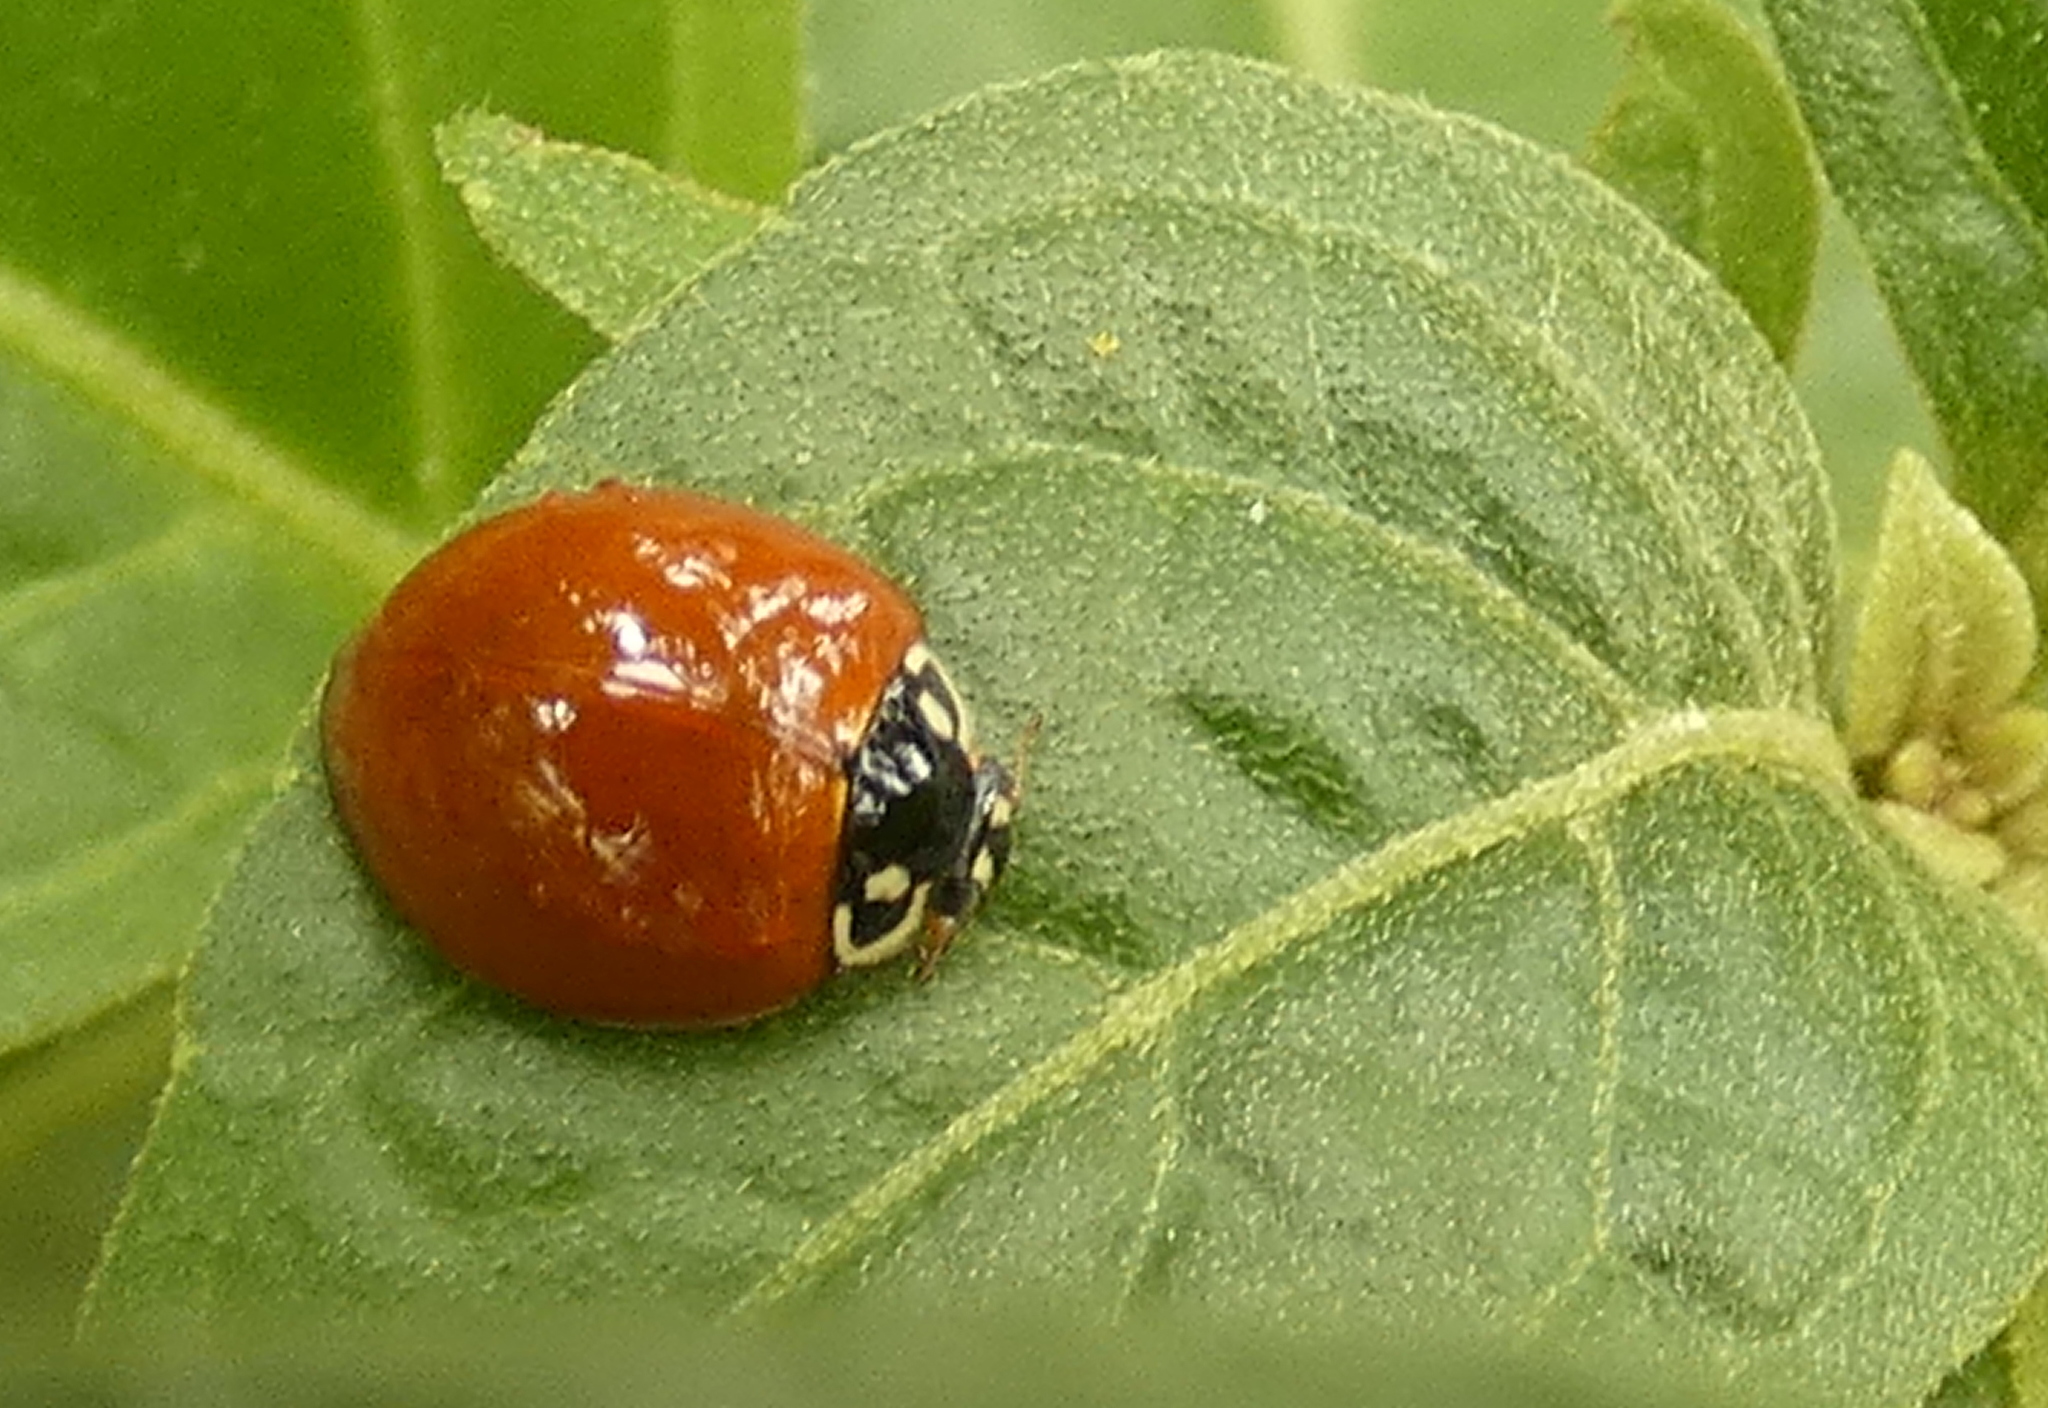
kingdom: Animalia
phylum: Arthropoda
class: Insecta
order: Coleoptera
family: Coccinellidae
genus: Cycloneda
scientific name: Cycloneda sanguinea
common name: Ladybird beetle
